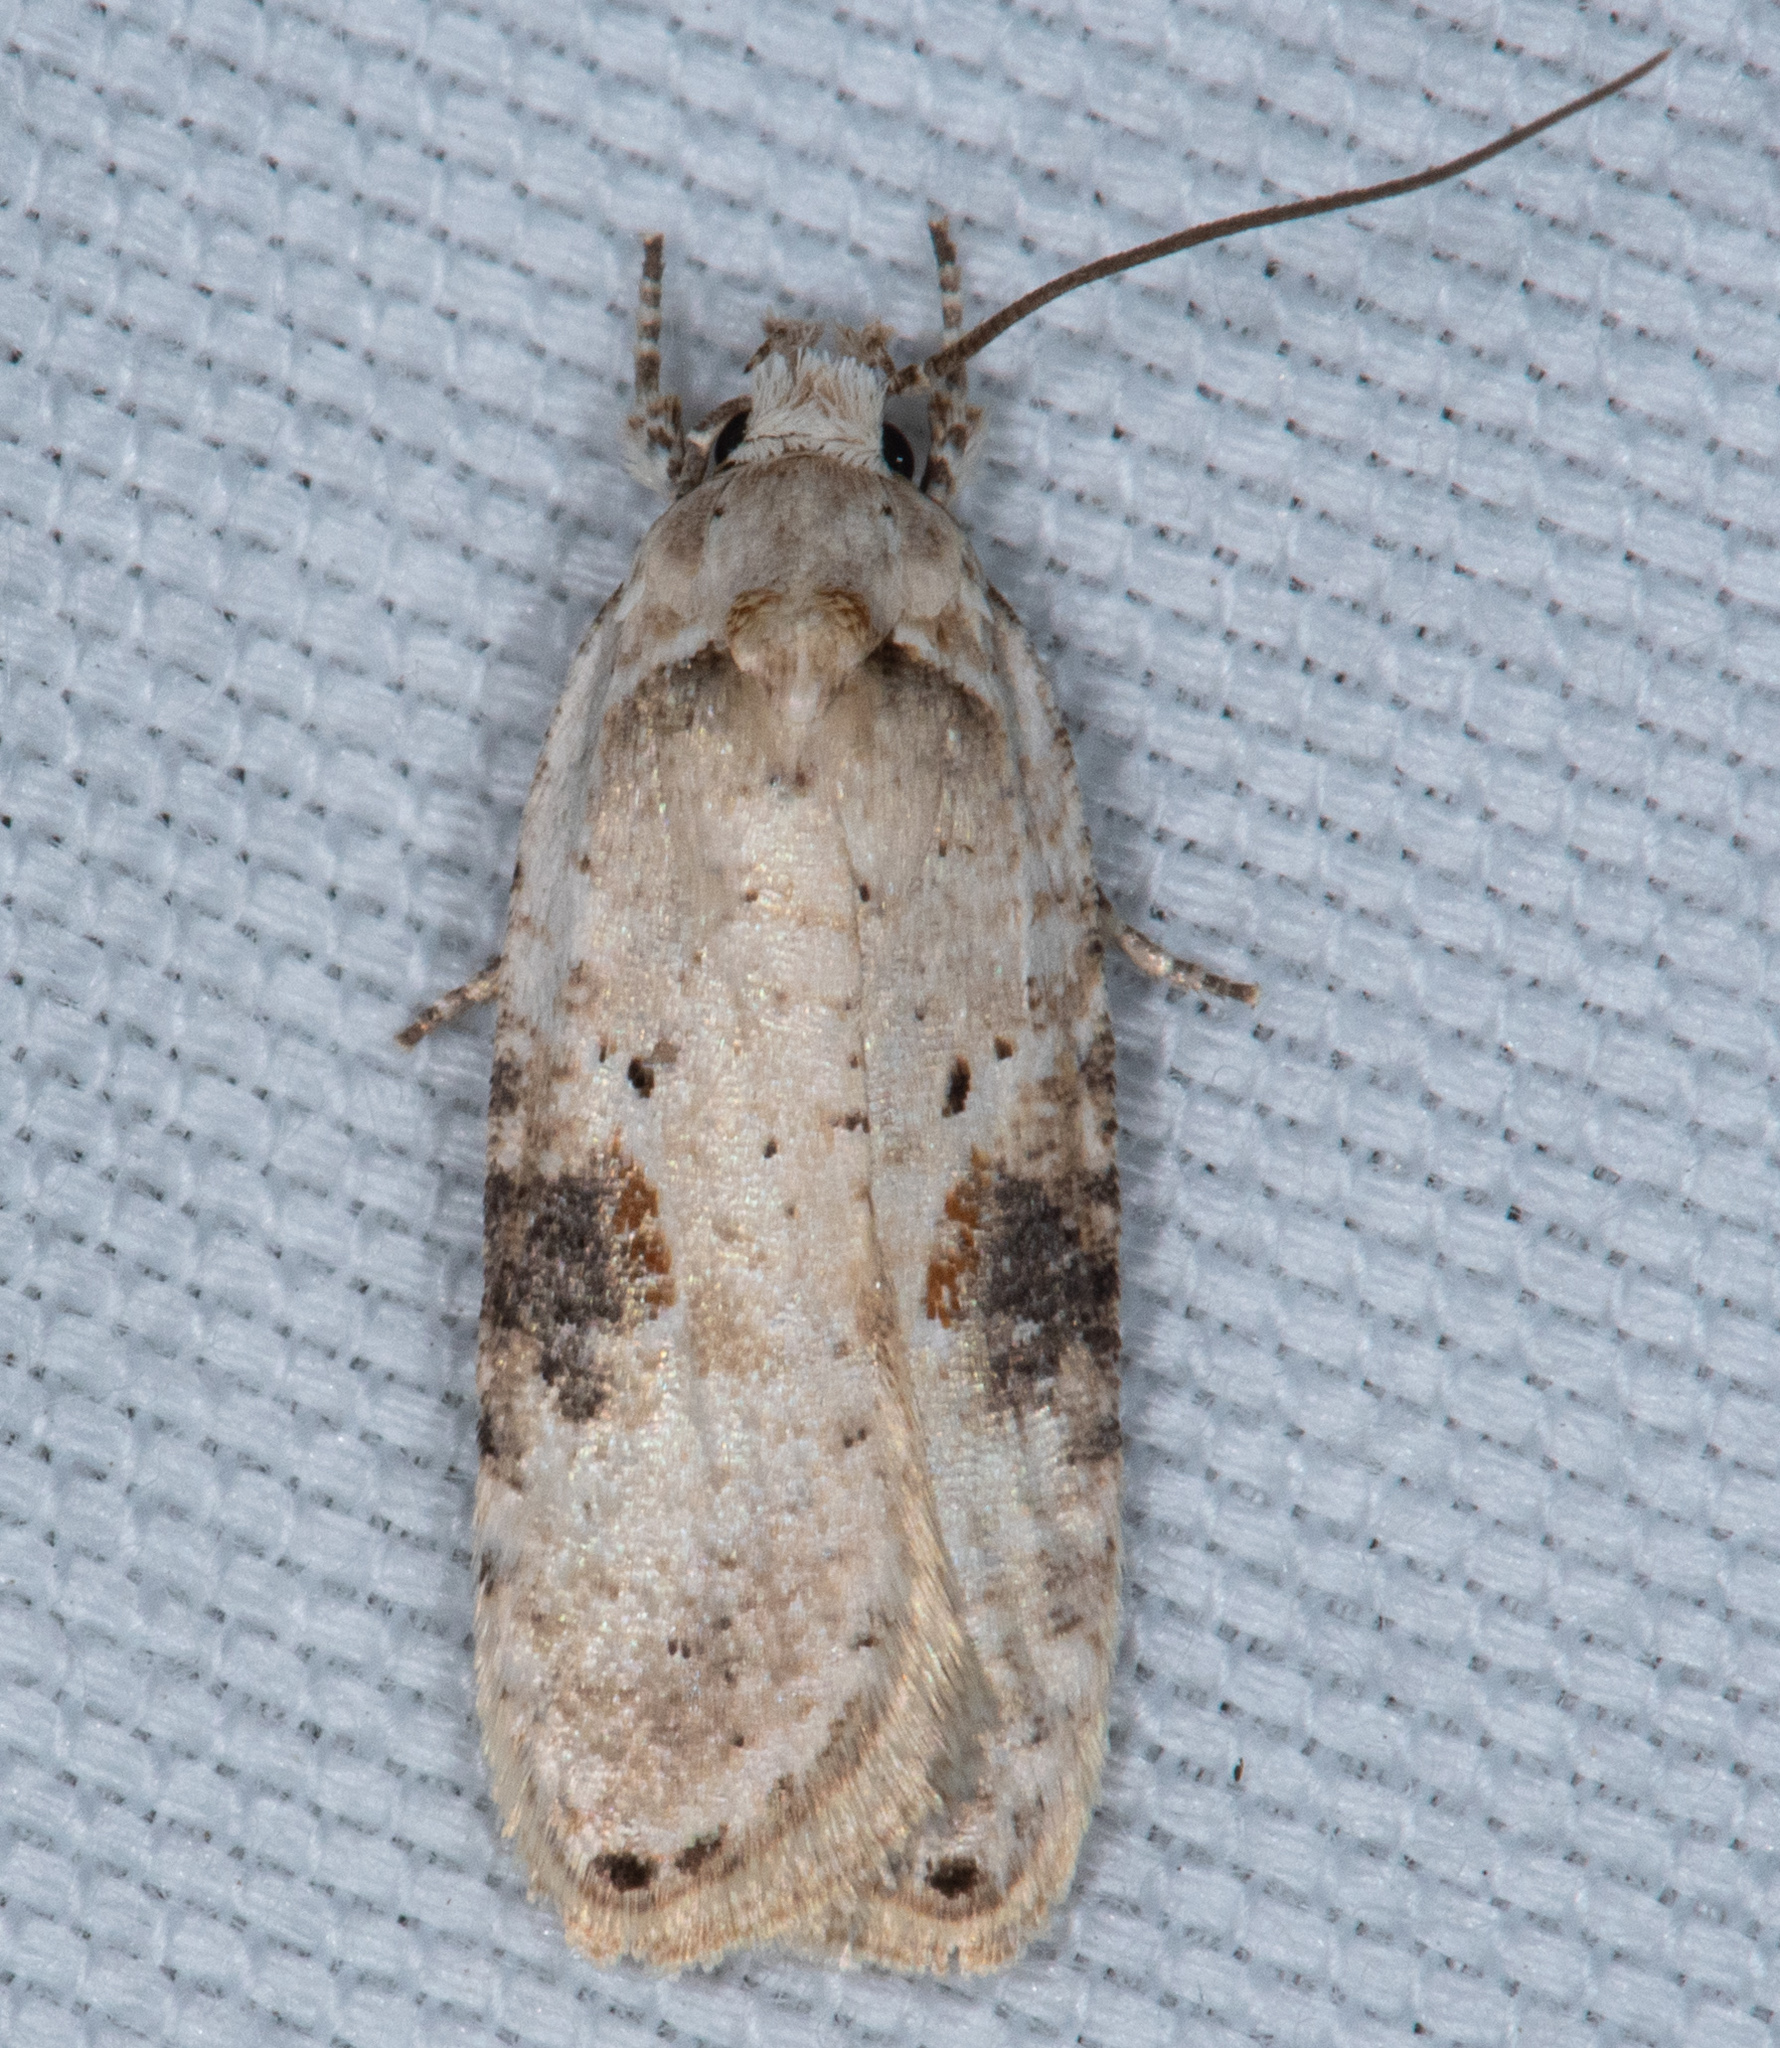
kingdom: Animalia
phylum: Arthropoda
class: Insecta
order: Lepidoptera
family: Depressariidae
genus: Agonopterix
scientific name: Agonopterix alstroemeriana
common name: Moth
